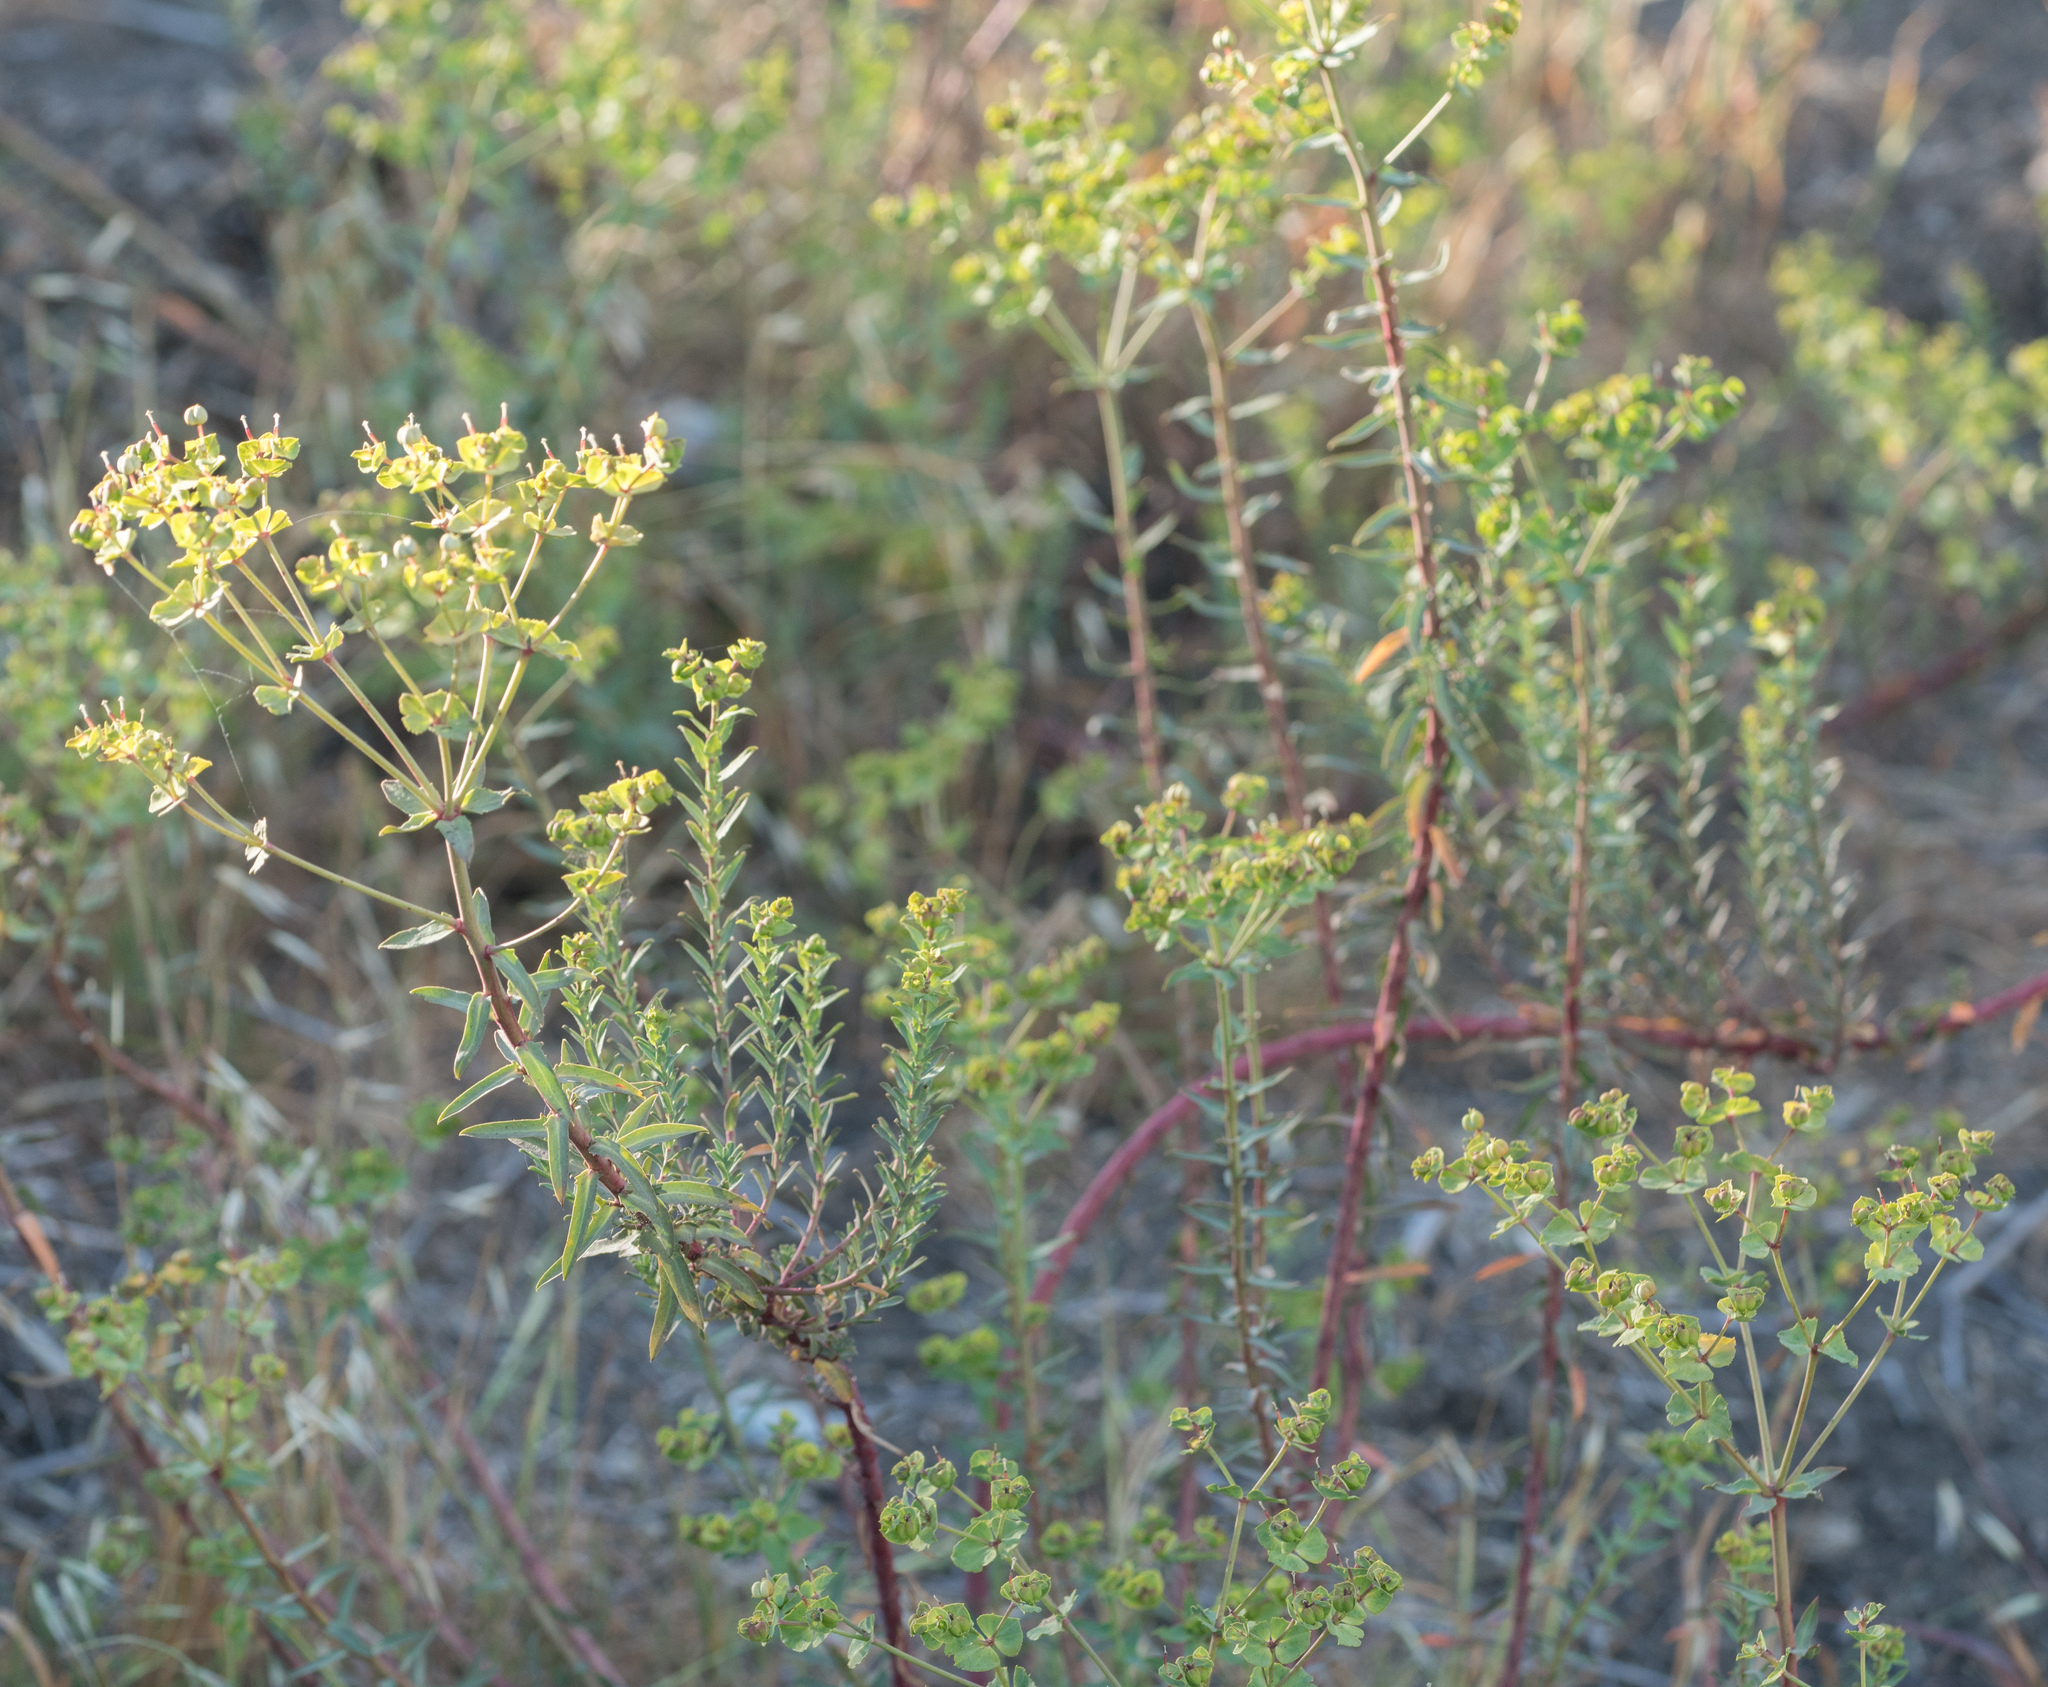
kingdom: Plantae
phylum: Tracheophyta
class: Magnoliopsida
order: Malpighiales
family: Euphorbiaceae
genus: Euphorbia
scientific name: Euphorbia terracina
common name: Geraldton carnation weed
